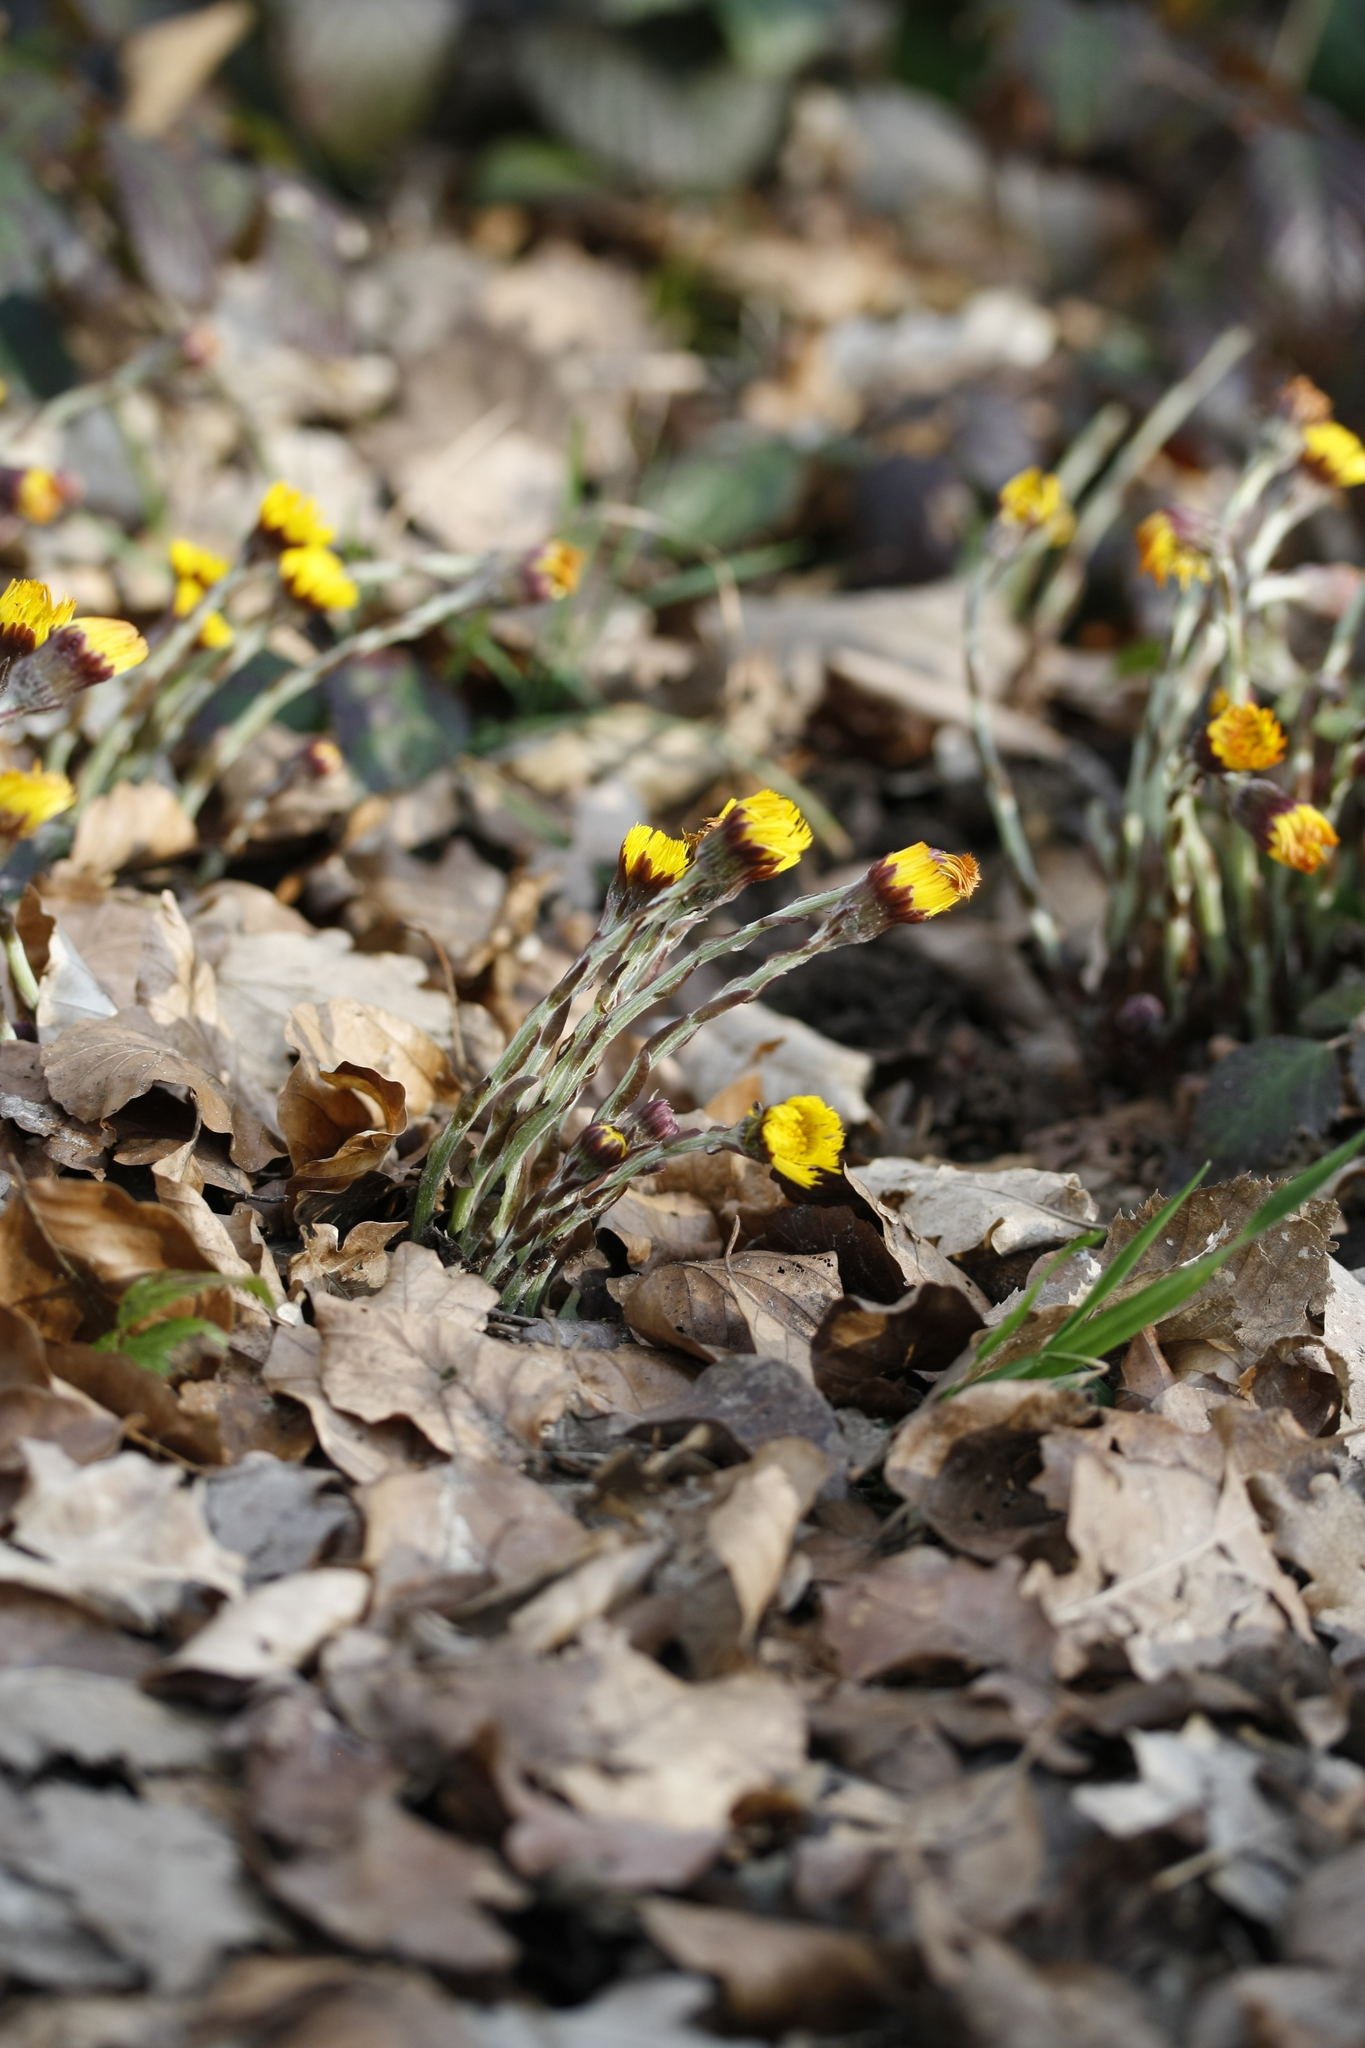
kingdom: Plantae
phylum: Tracheophyta
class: Magnoliopsida
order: Asterales
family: Asteraceae
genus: Tussilago
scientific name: Tussilago farfara
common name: Coltsfoot
